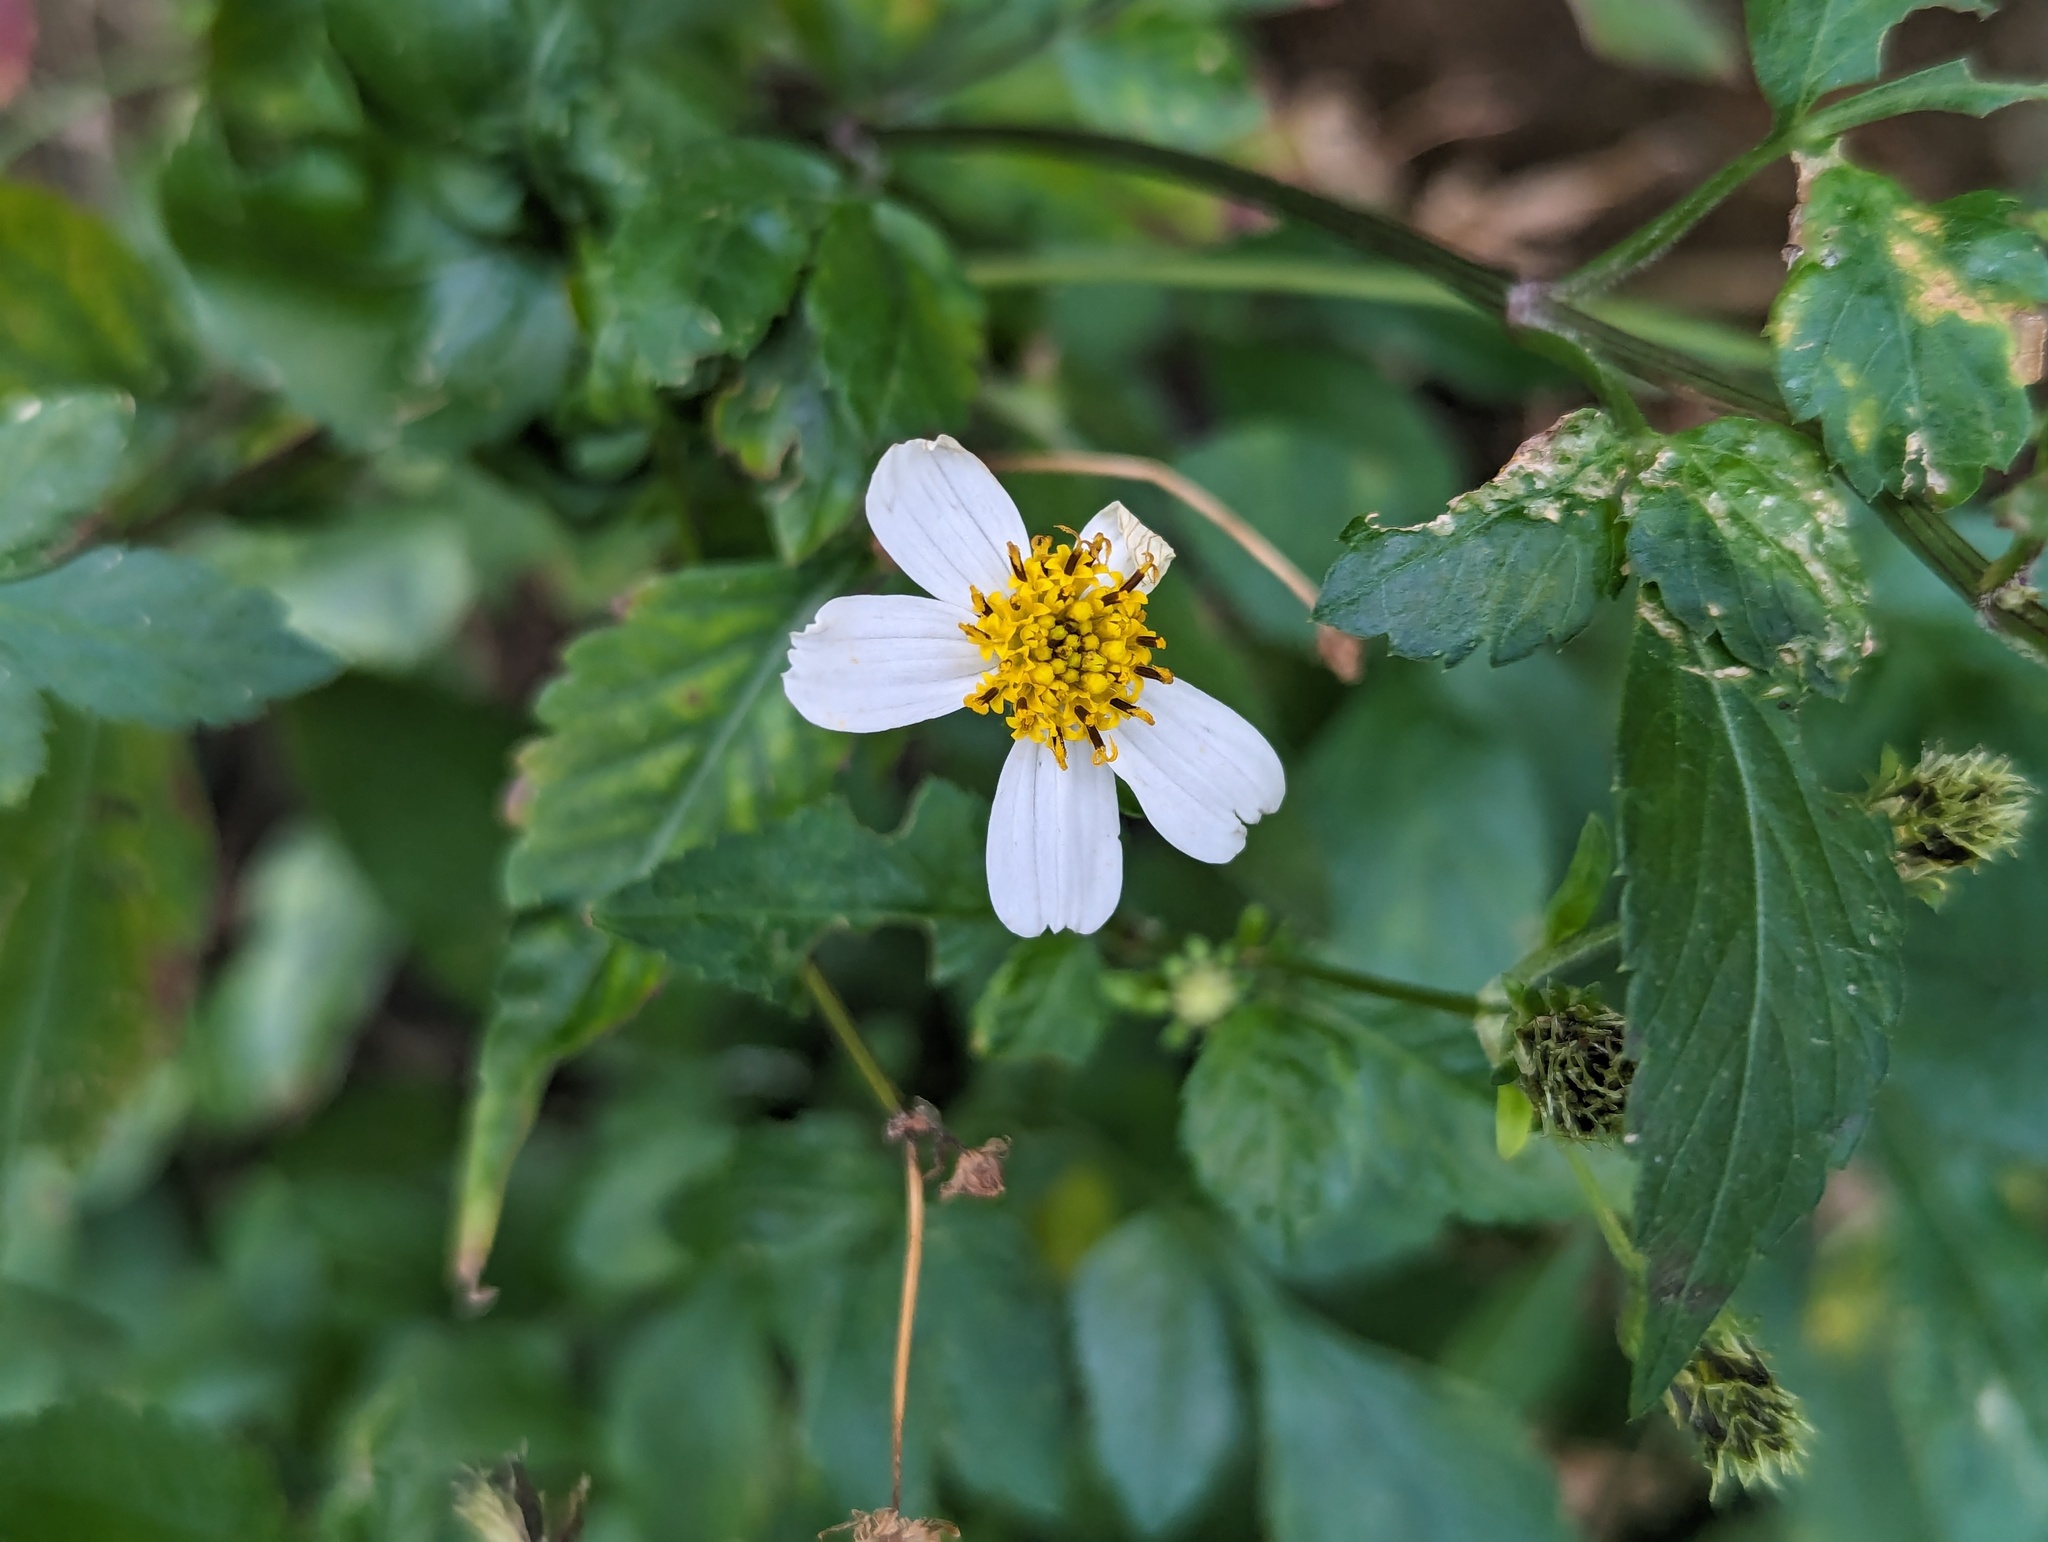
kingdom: Plantae
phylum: Tracheophyta
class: Magnoliopsida
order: Asterales
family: Asteraceae
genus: Bidens
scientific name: Bidens alba
